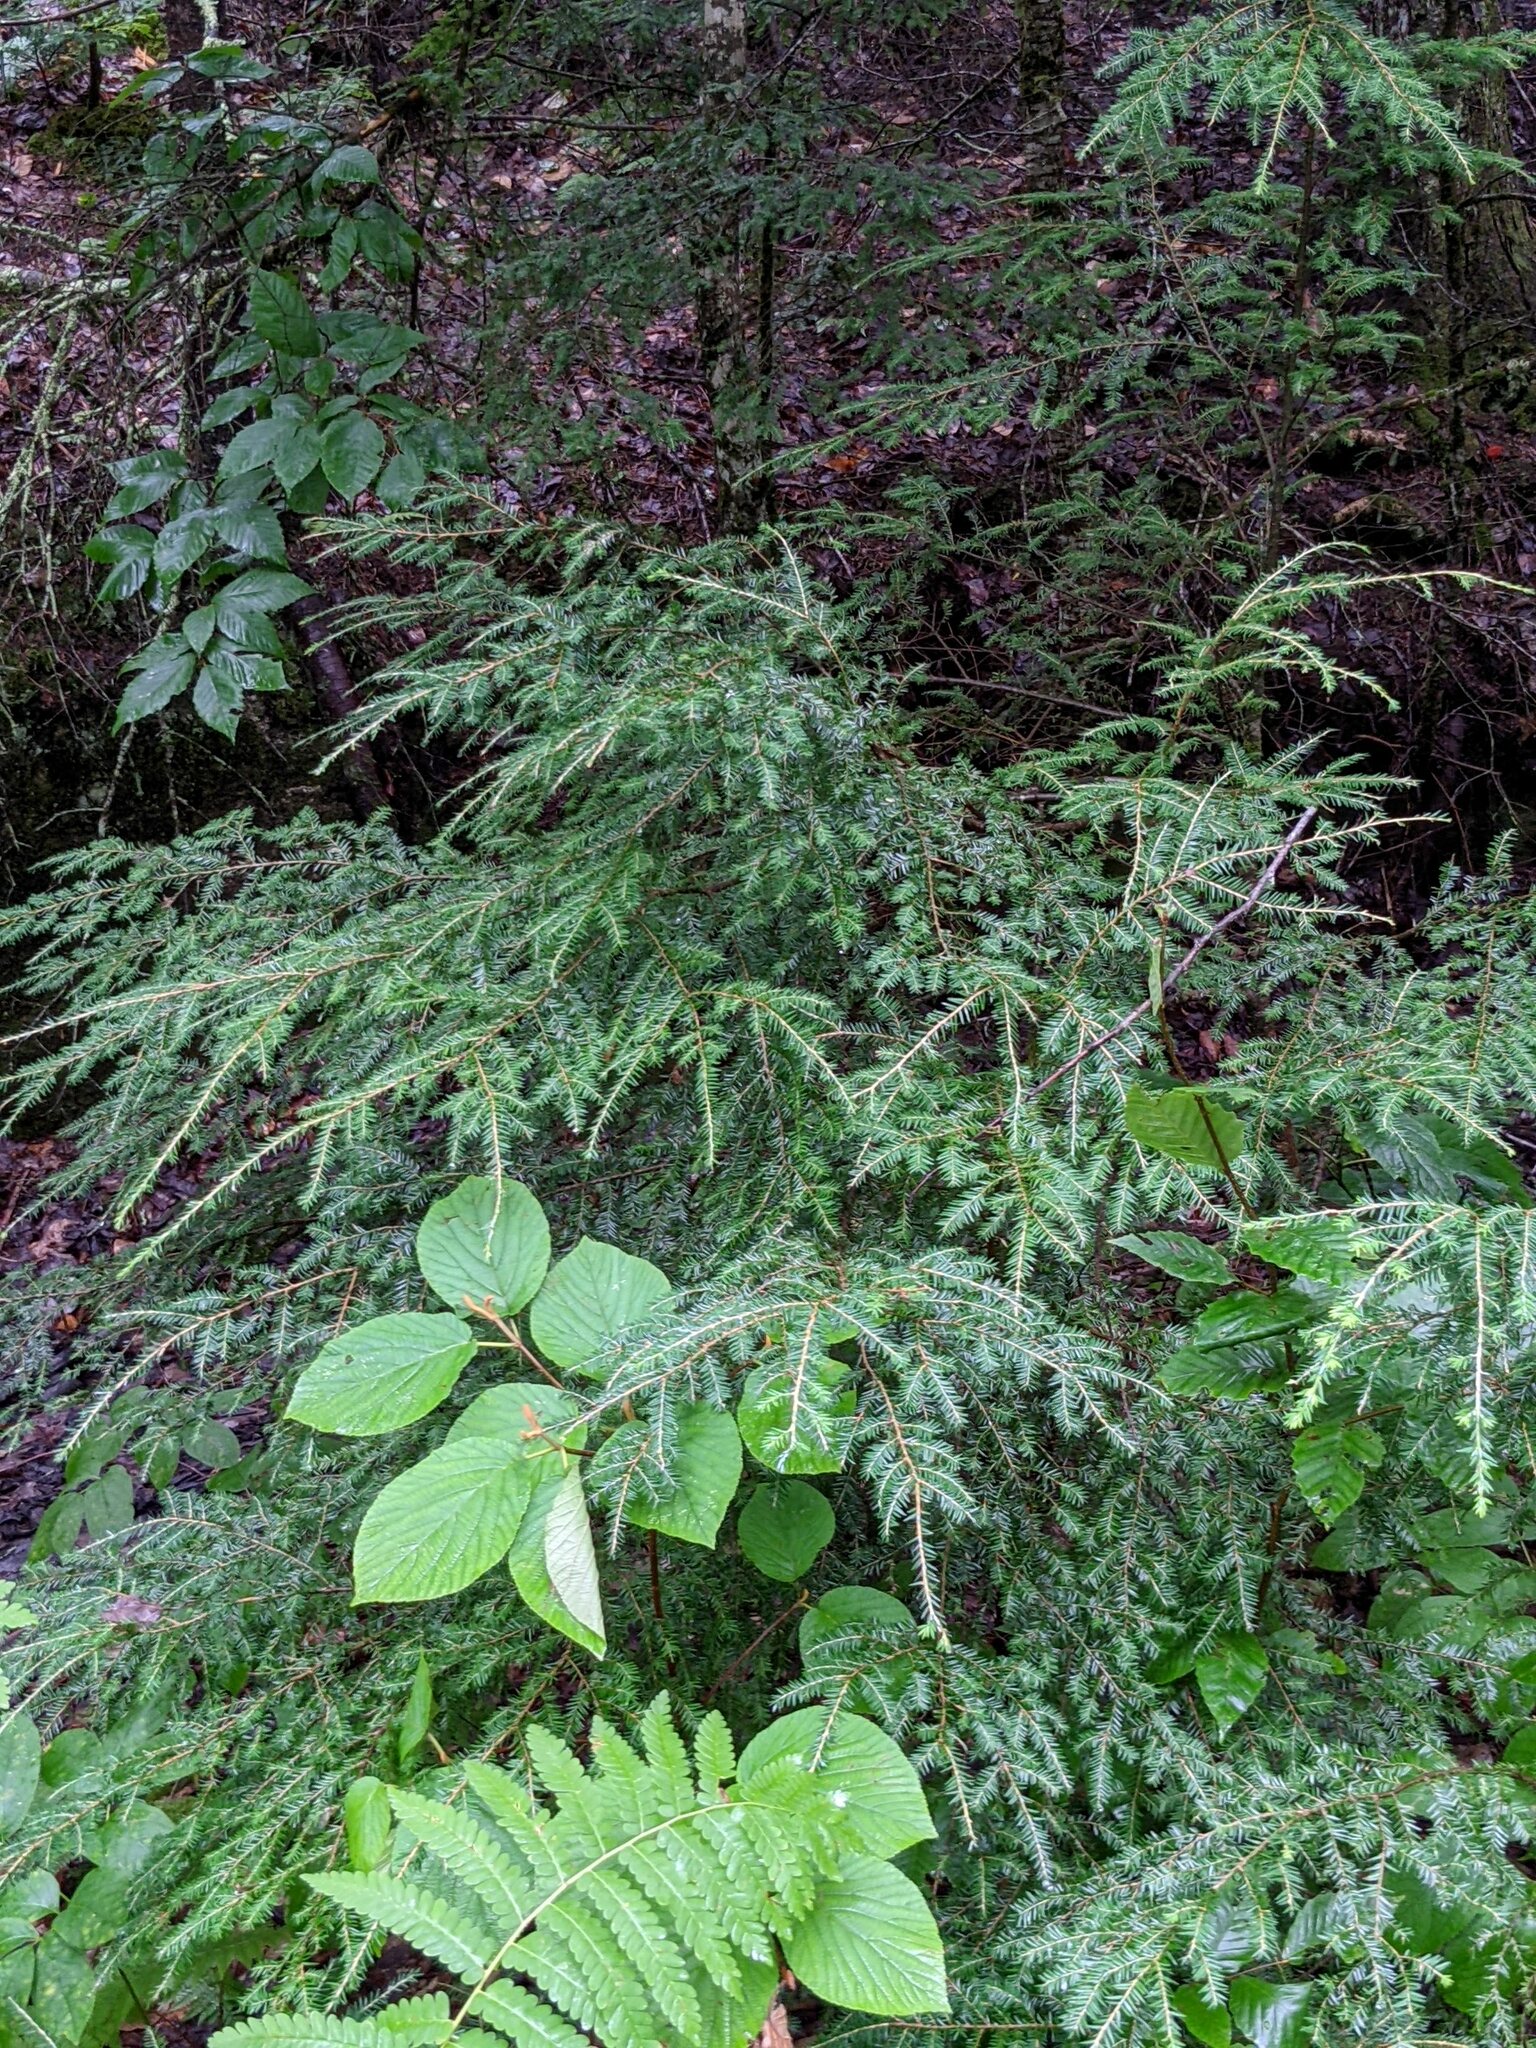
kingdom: Plantae
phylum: Tracheophyta
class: Pinopsida
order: Pinales
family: Pinaceae
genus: Tsuga
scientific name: Tsuga canadensis
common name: Eastern hemlock
